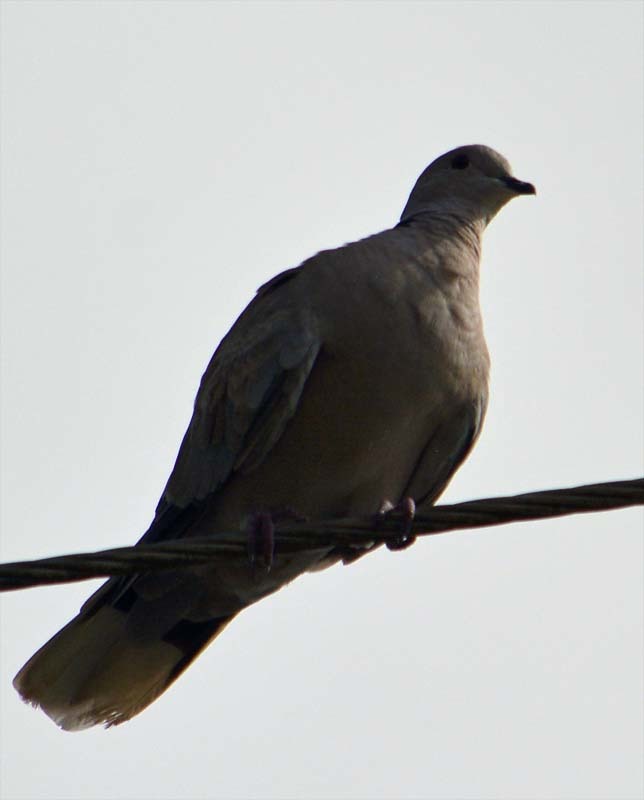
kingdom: Animalia
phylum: Chordata
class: Aves
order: Columbiformes
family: Columbidae
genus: Streptopelia
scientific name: Streptopelia decaocto
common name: Eurasian collared dove
